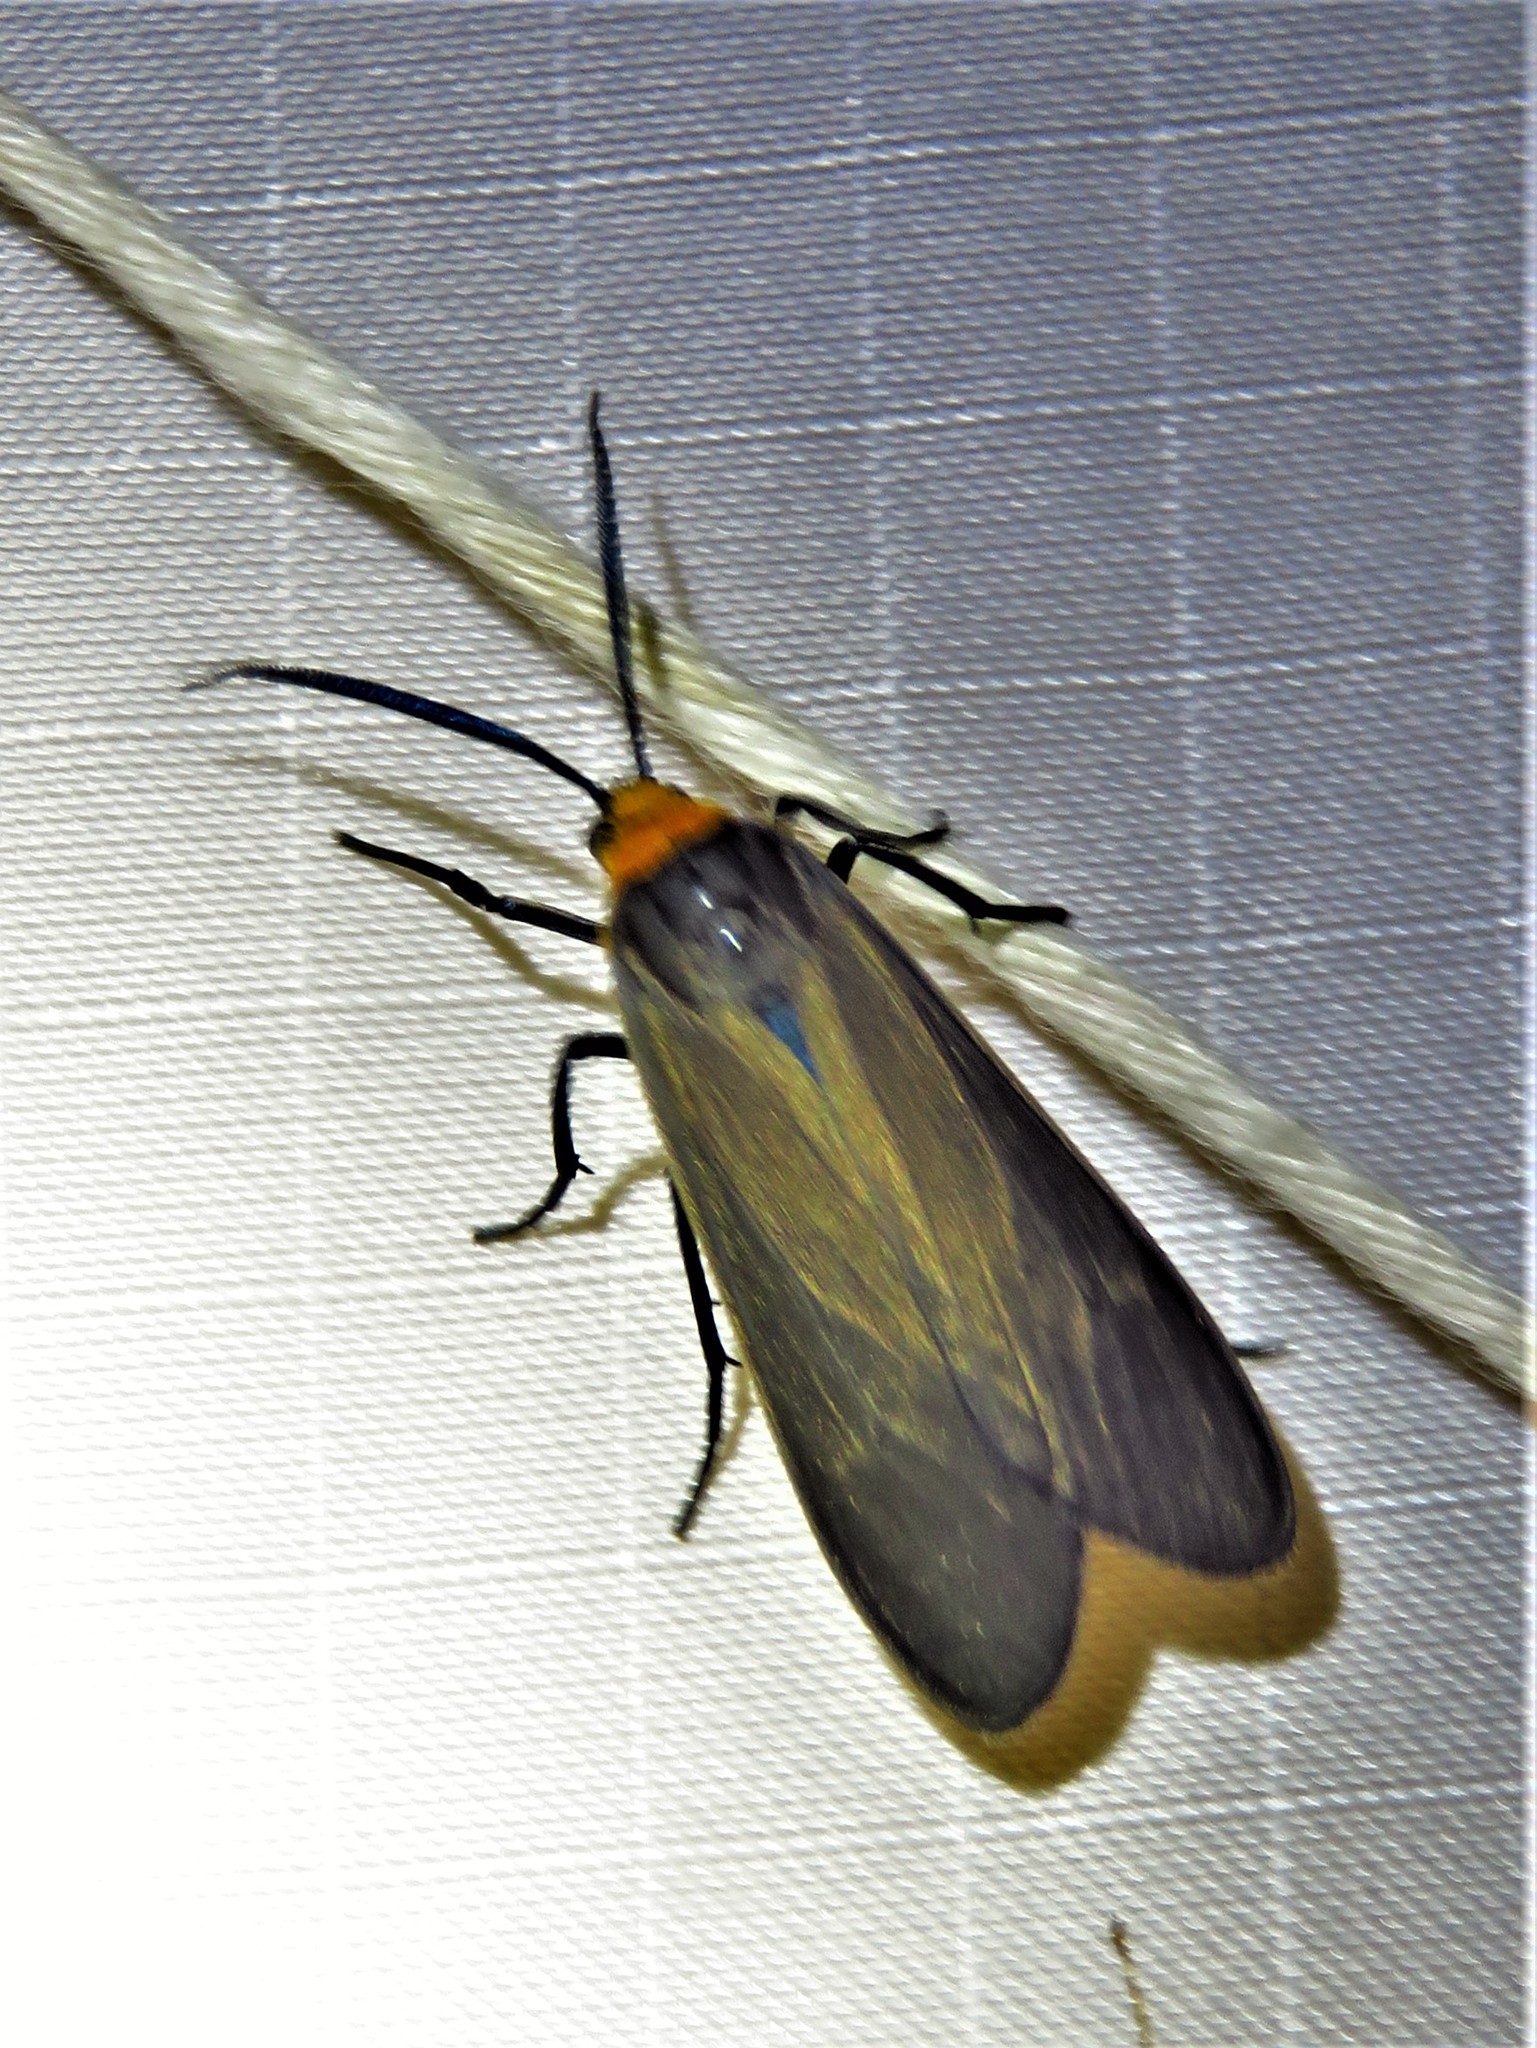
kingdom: Animalia
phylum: Arthropoda
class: Insecta
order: Lepidoptera
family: Erebidae
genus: Cisseps
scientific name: Cisseps fulvicollis
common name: Yellow-collared scape moth
